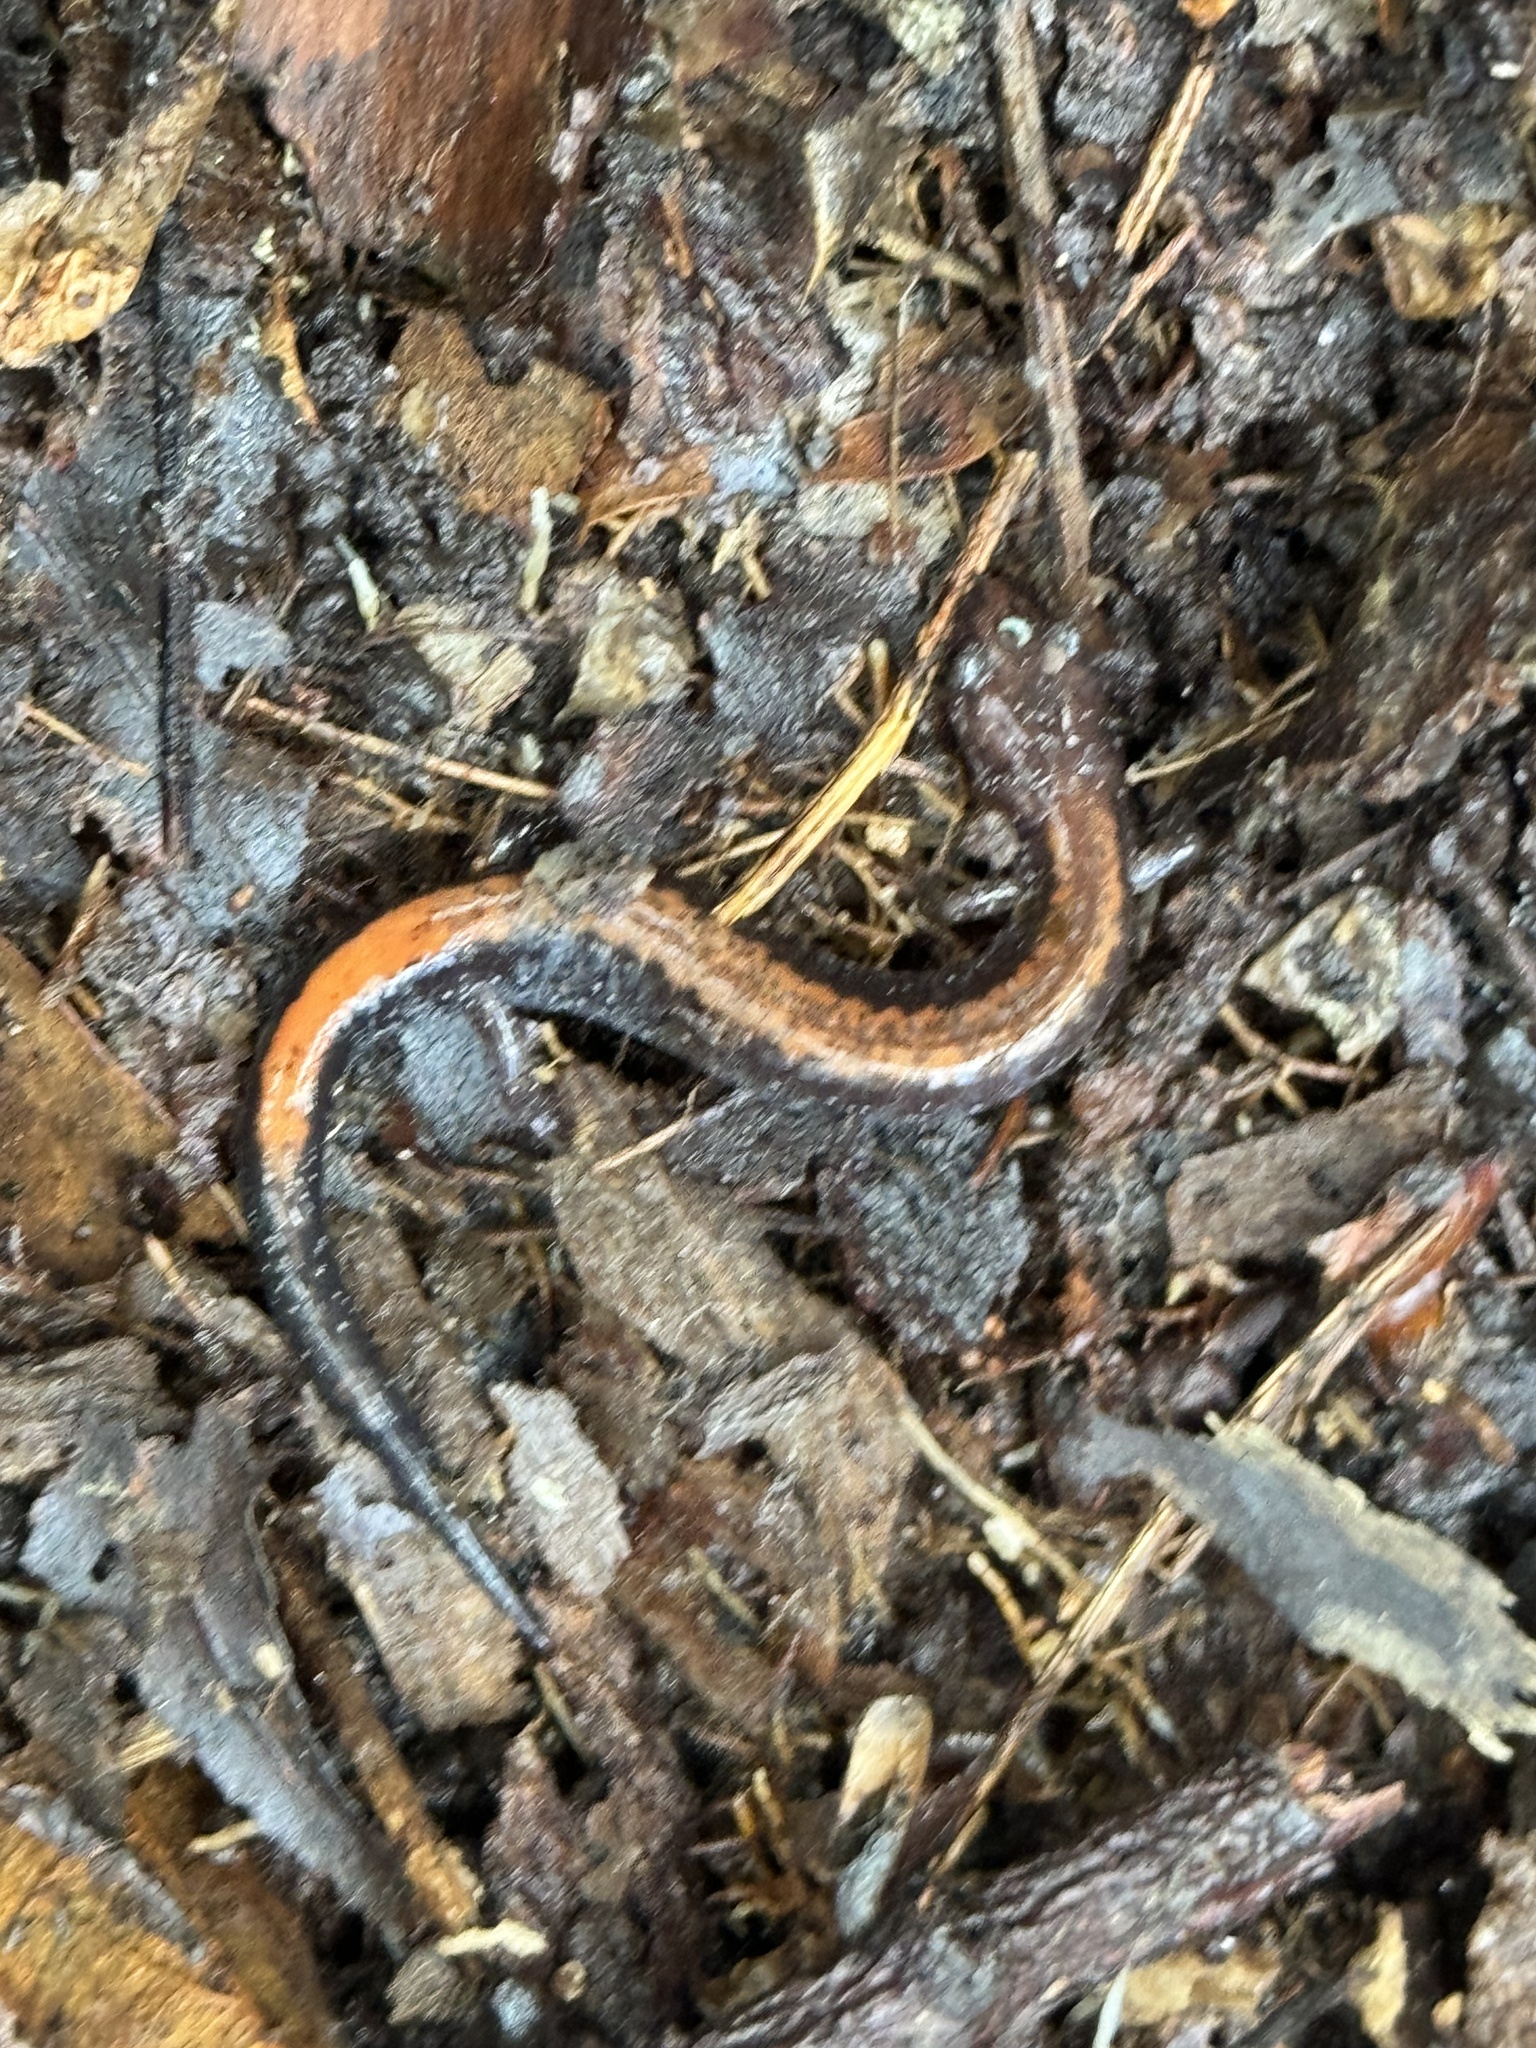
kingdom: Animalia
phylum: Chordata
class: Amphibia
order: Caudata
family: Plethodontidae
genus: Plethodon
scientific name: Plethodon cinereus
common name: Redback salamander
